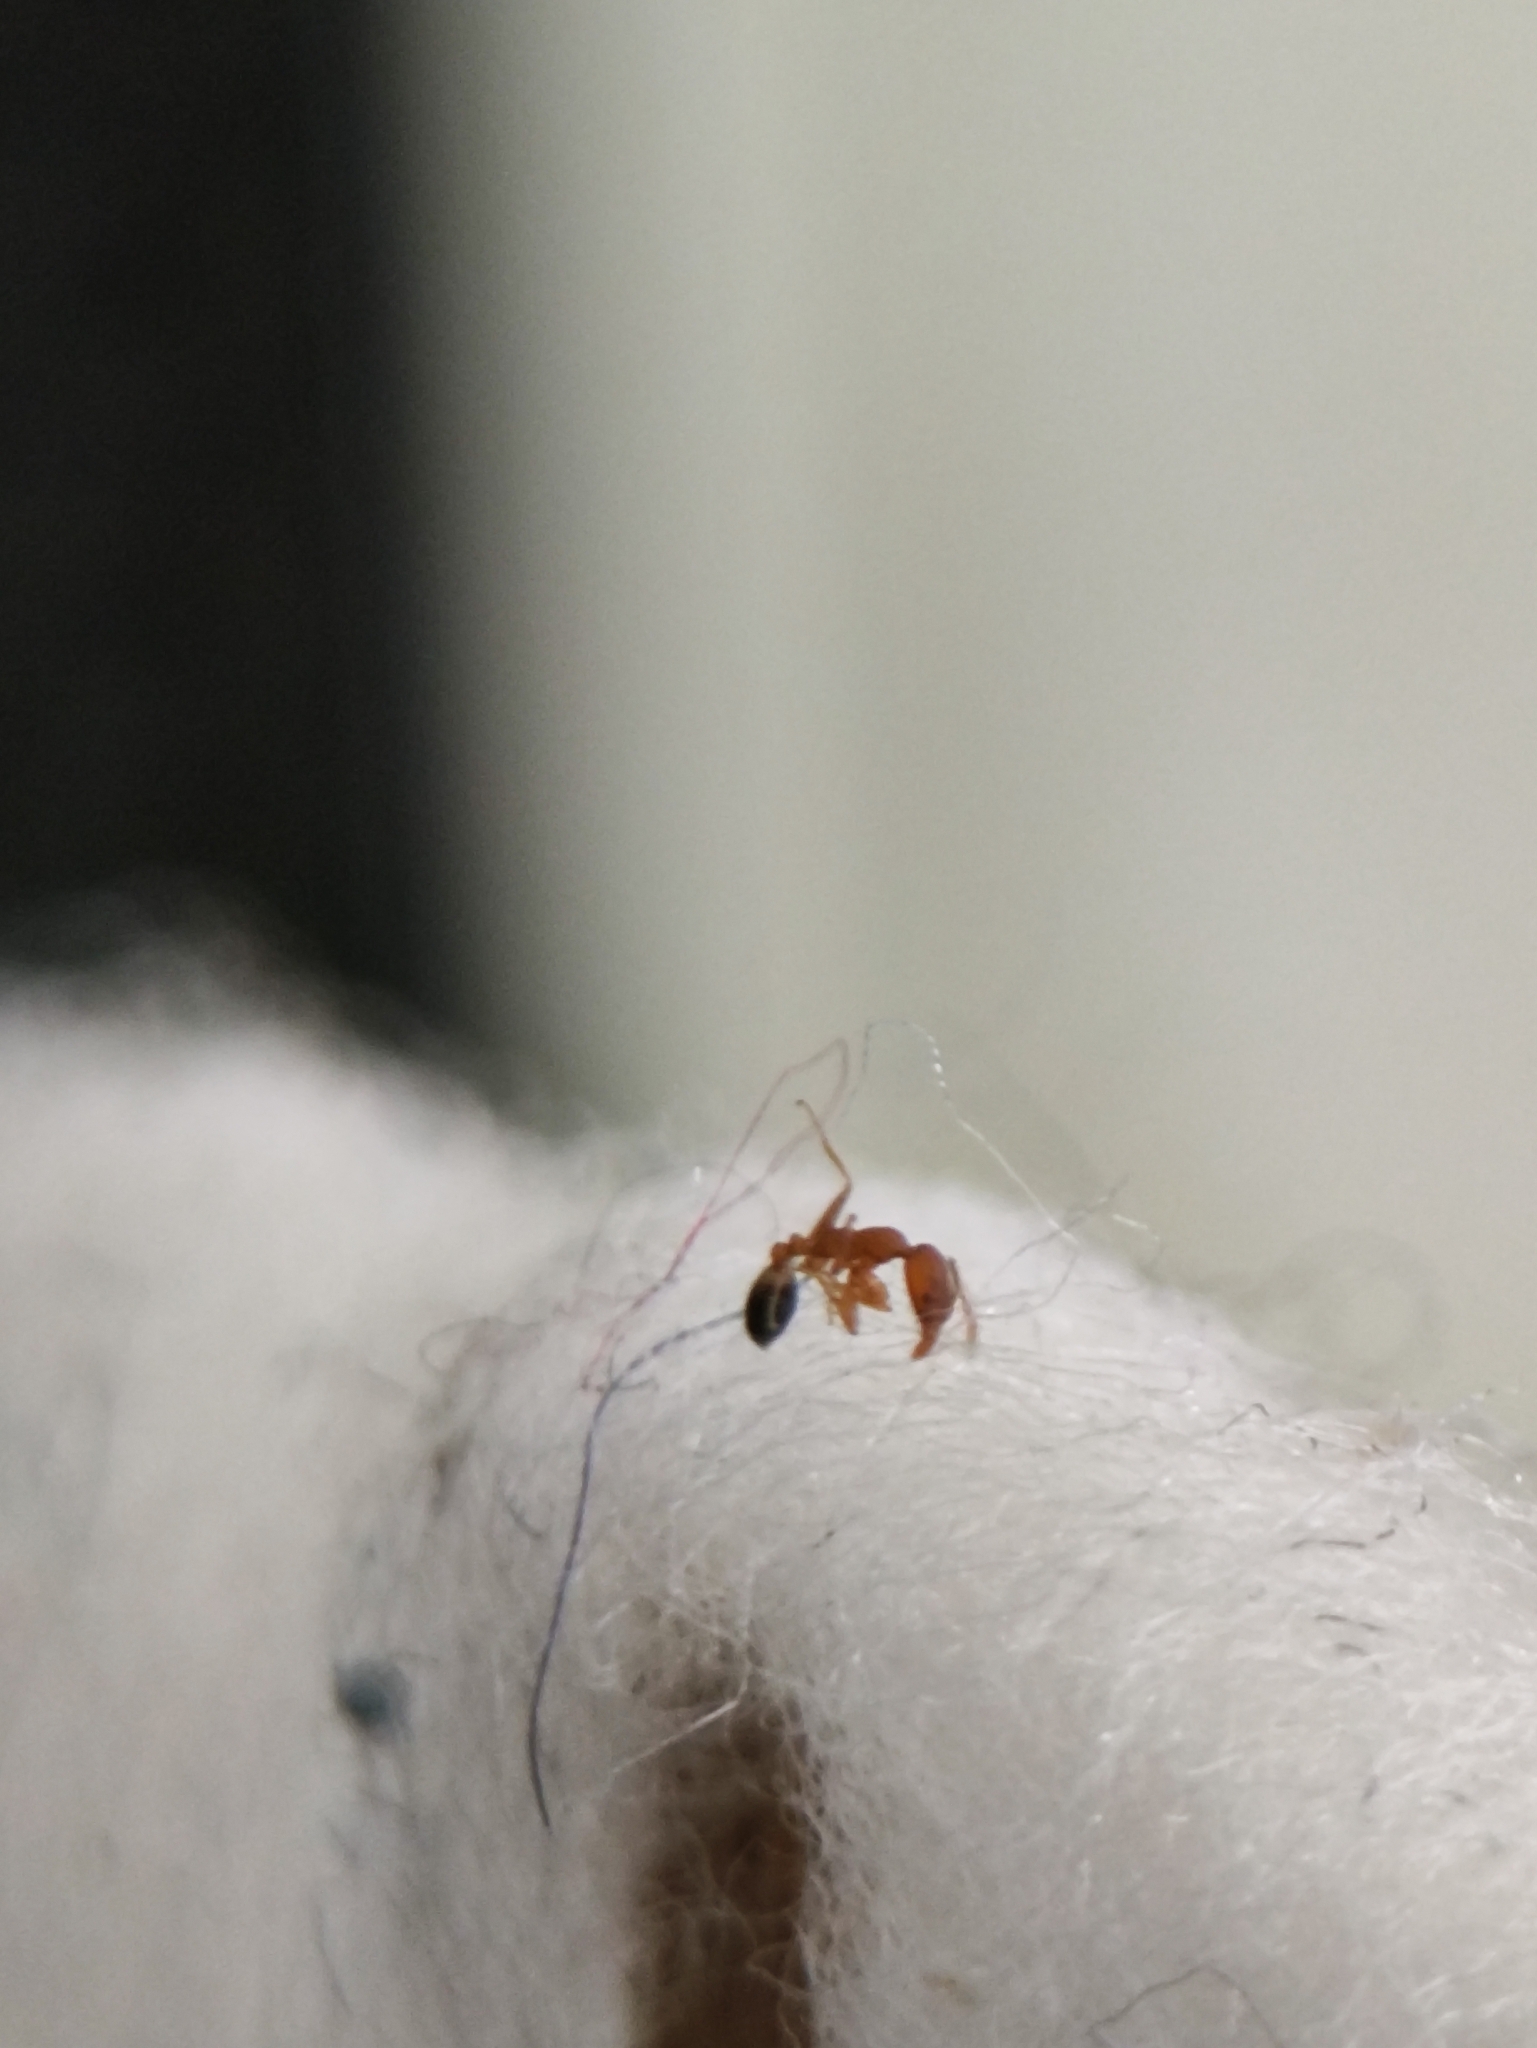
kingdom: Animalia
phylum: Arthropoda
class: Insecta
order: Hymenoptera
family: Formicidae
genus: Monomorium
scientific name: Monomorium sahlbergi
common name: Ant
